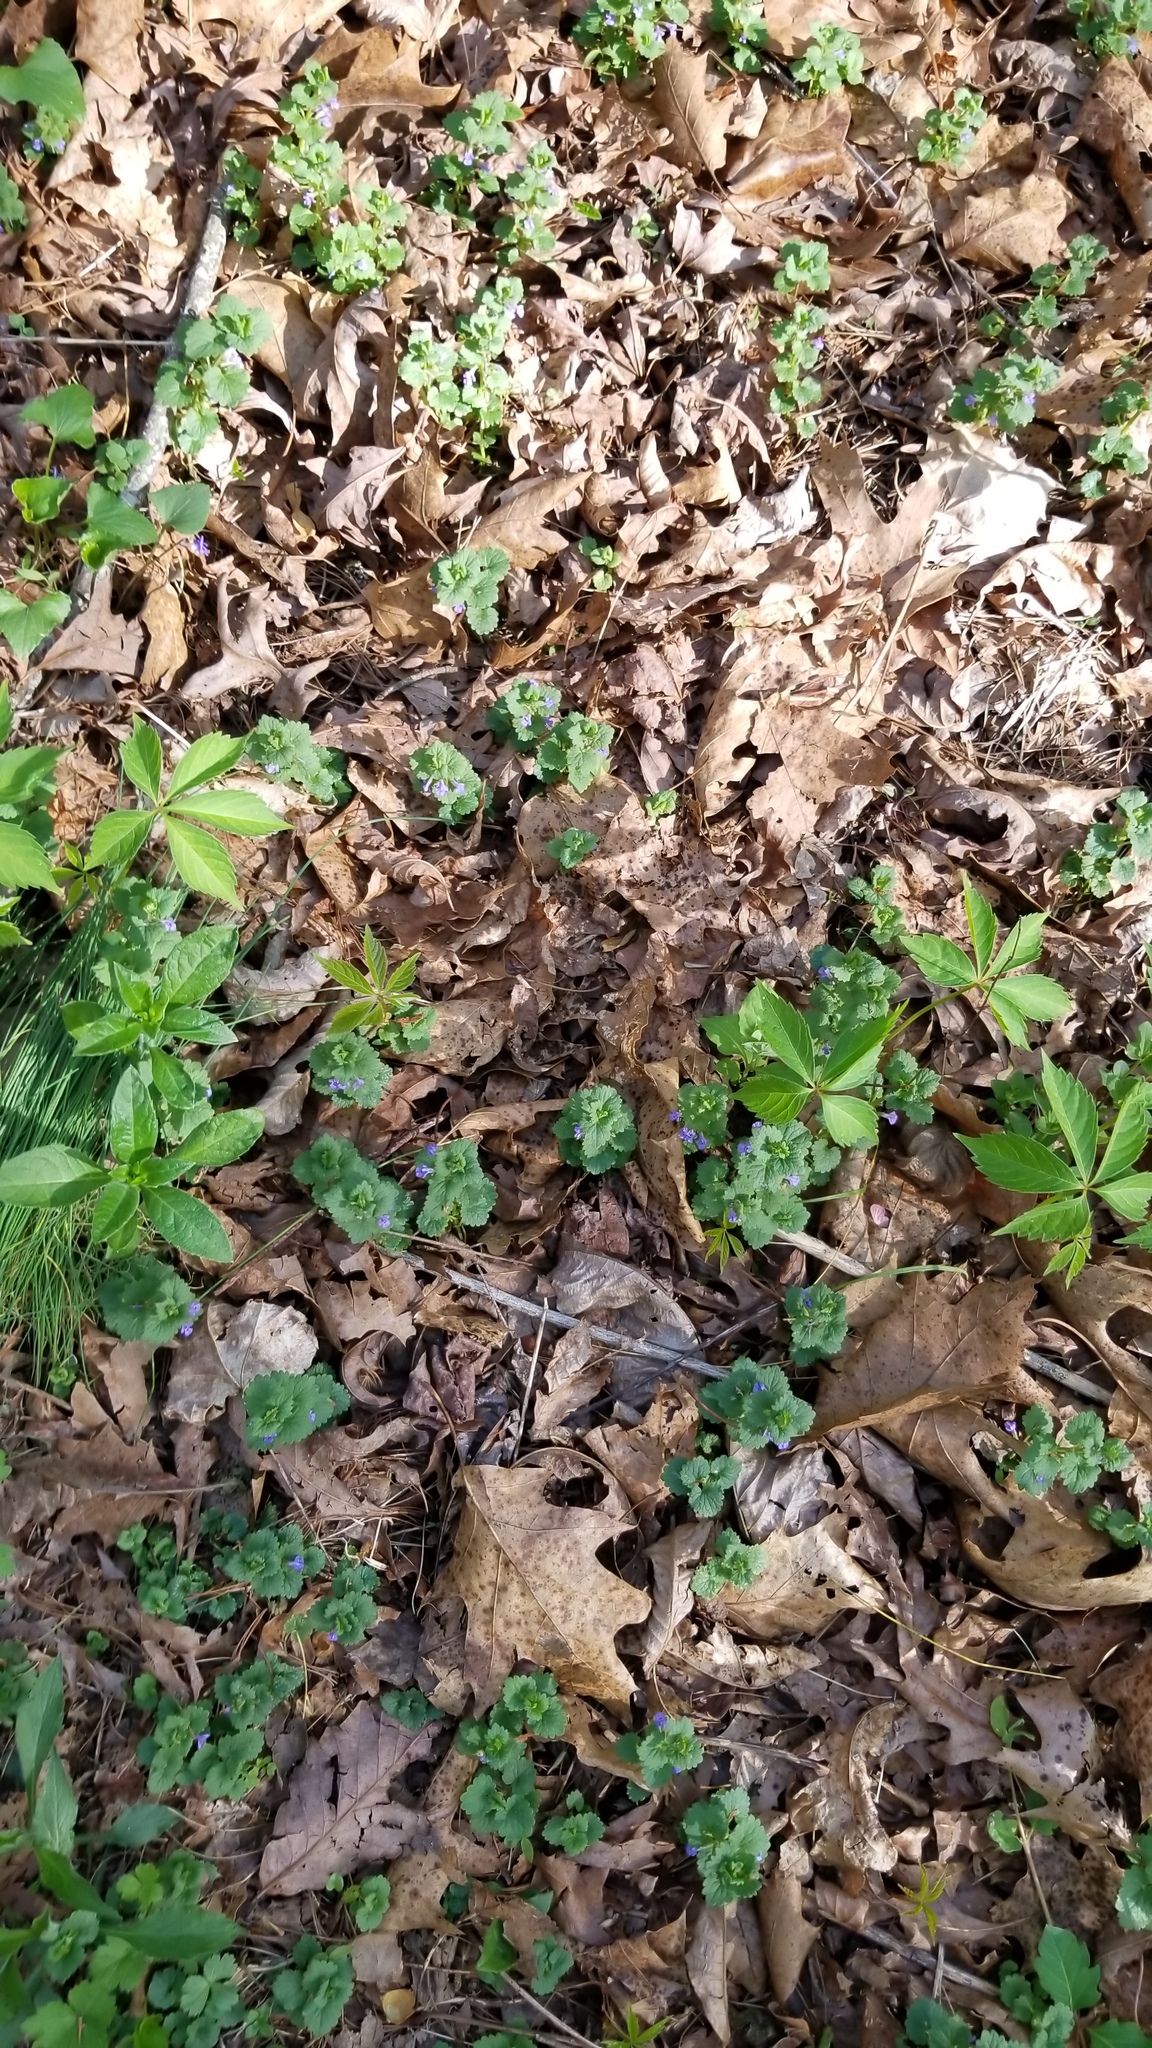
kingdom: Plantae
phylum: Tracheophyta
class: Magnoliopsida
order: Lamiales
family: Lamiaceae
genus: Glechoma
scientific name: Glechoma hederacea
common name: Ground ivy
